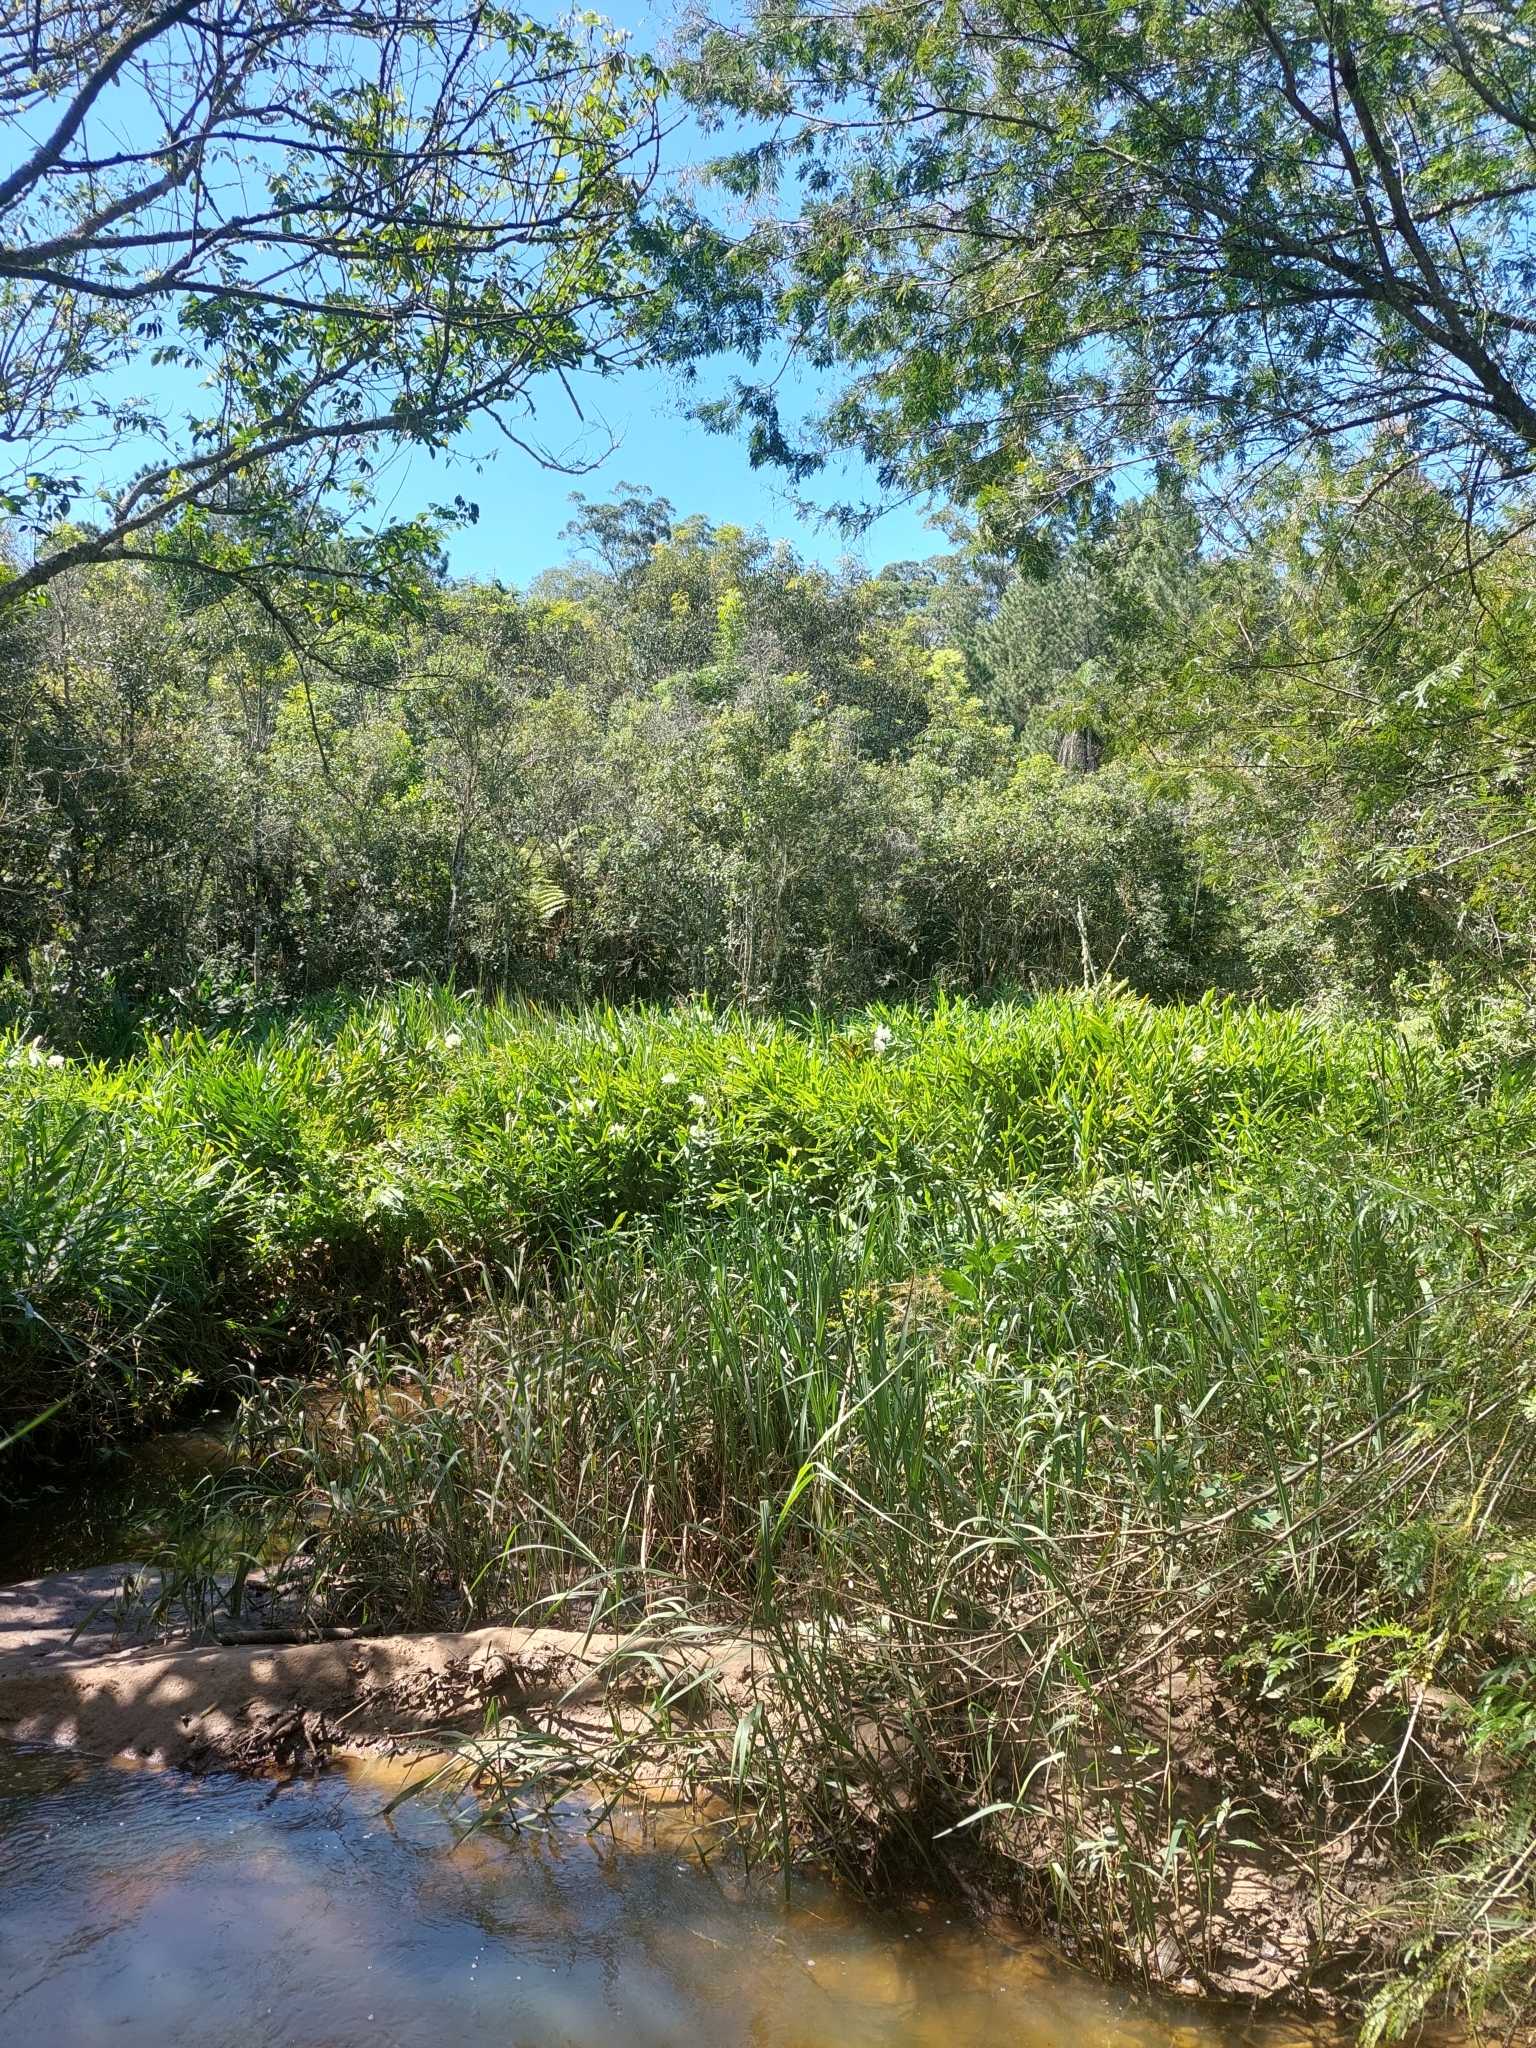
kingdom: Plantae
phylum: Tracheophyta
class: Liliopsida
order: Zingiberales
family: Zingiberaceae
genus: Hedychium
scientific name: Hedychium coronarium
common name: White garland-lily
